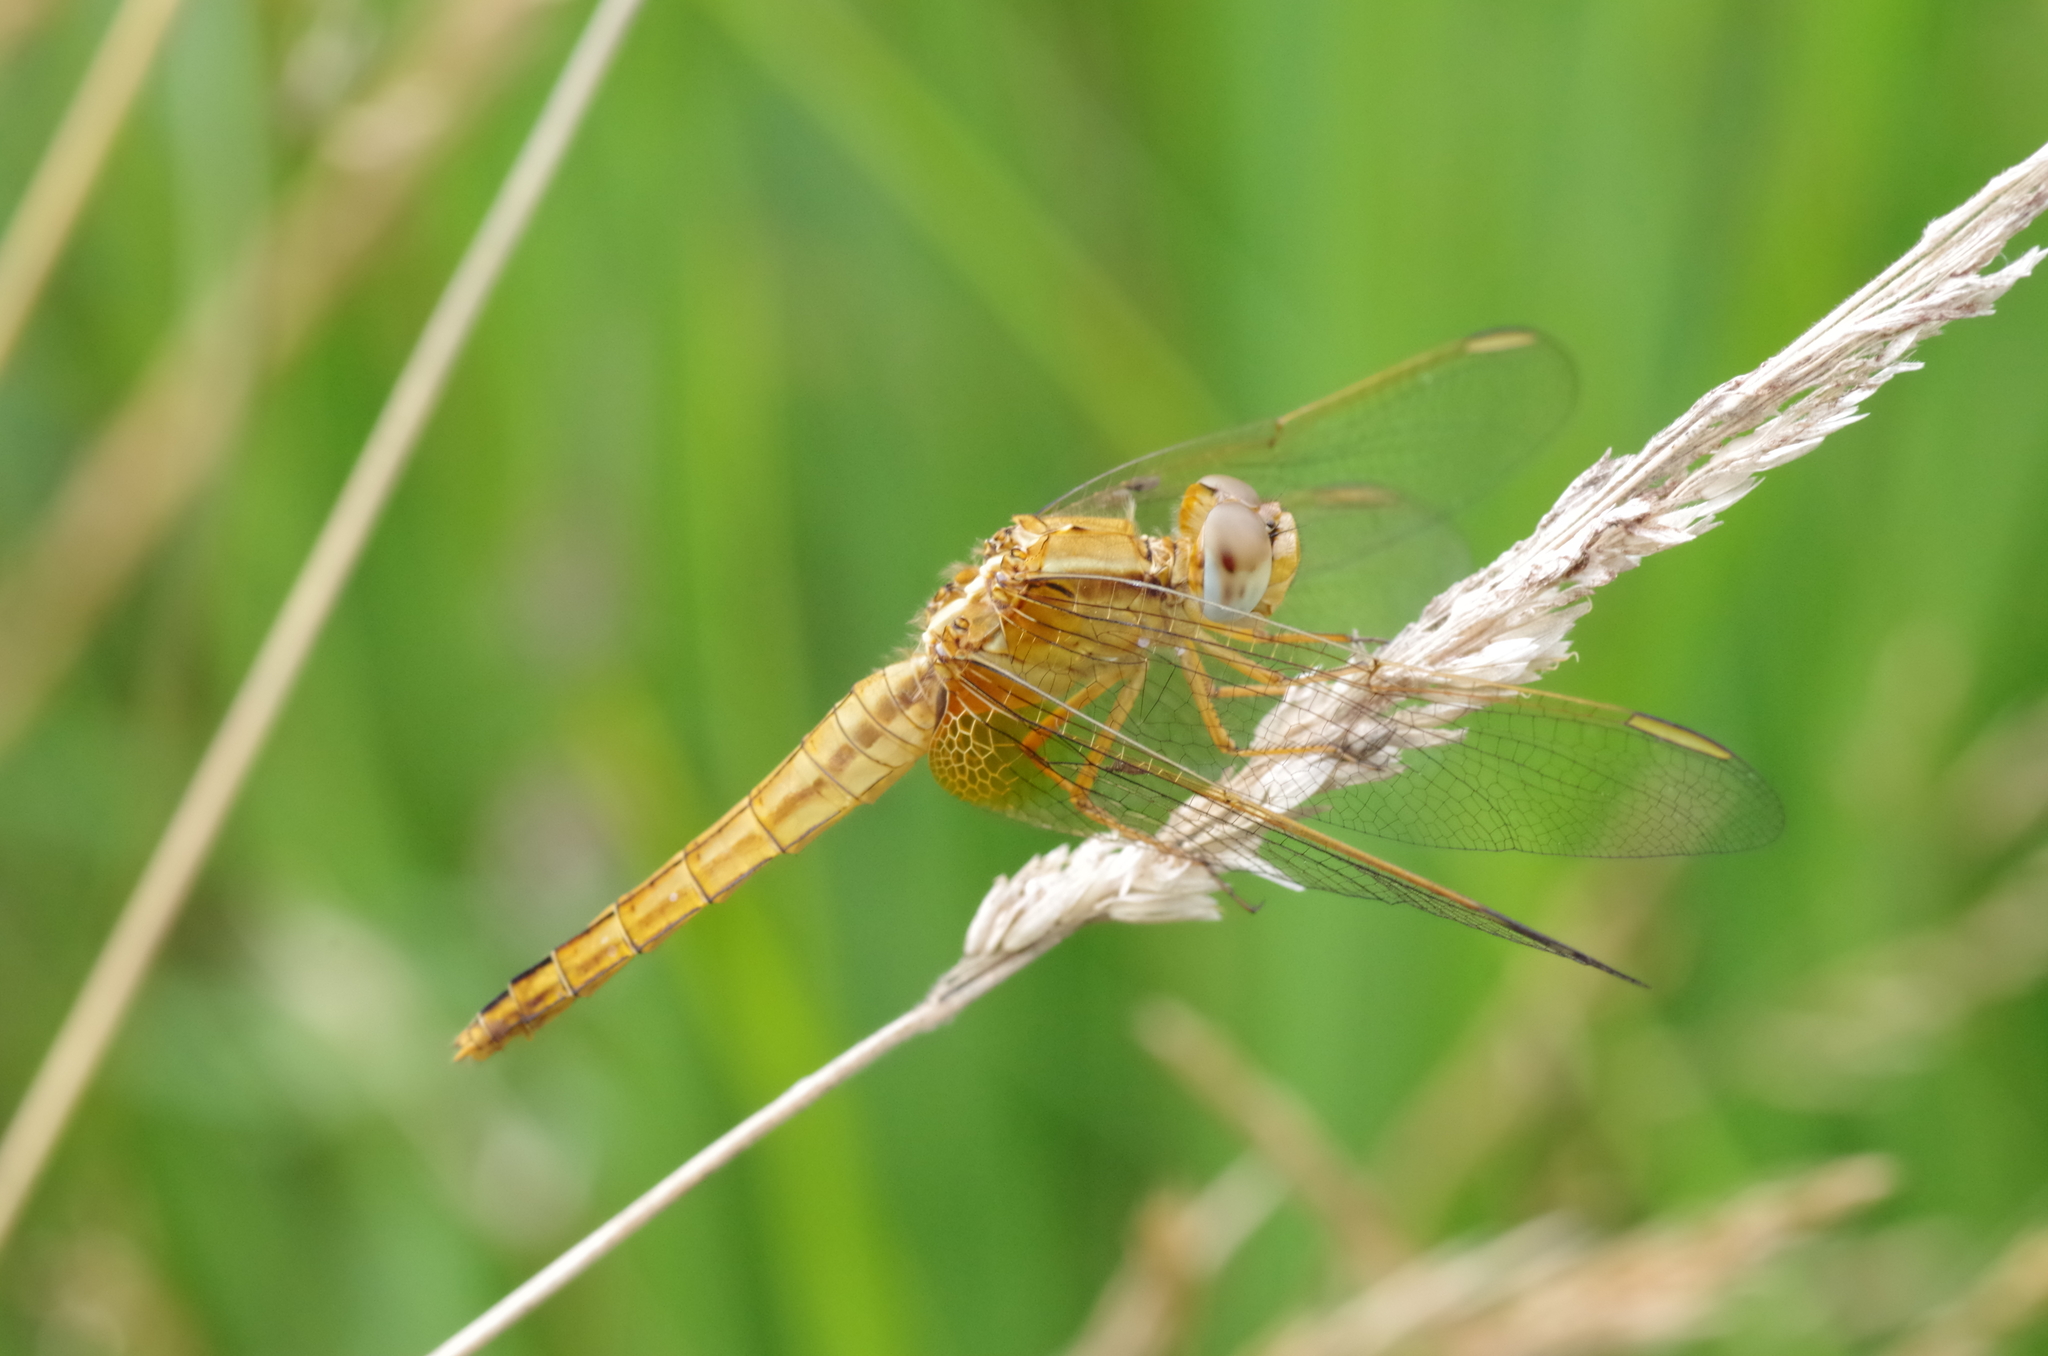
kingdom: Animalia
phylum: Arthropoda
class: Insecta
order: Odonata
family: Libellulidae
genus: Crocothemis
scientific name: Crocothemis erythraea
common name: Scarlet dragonfly
